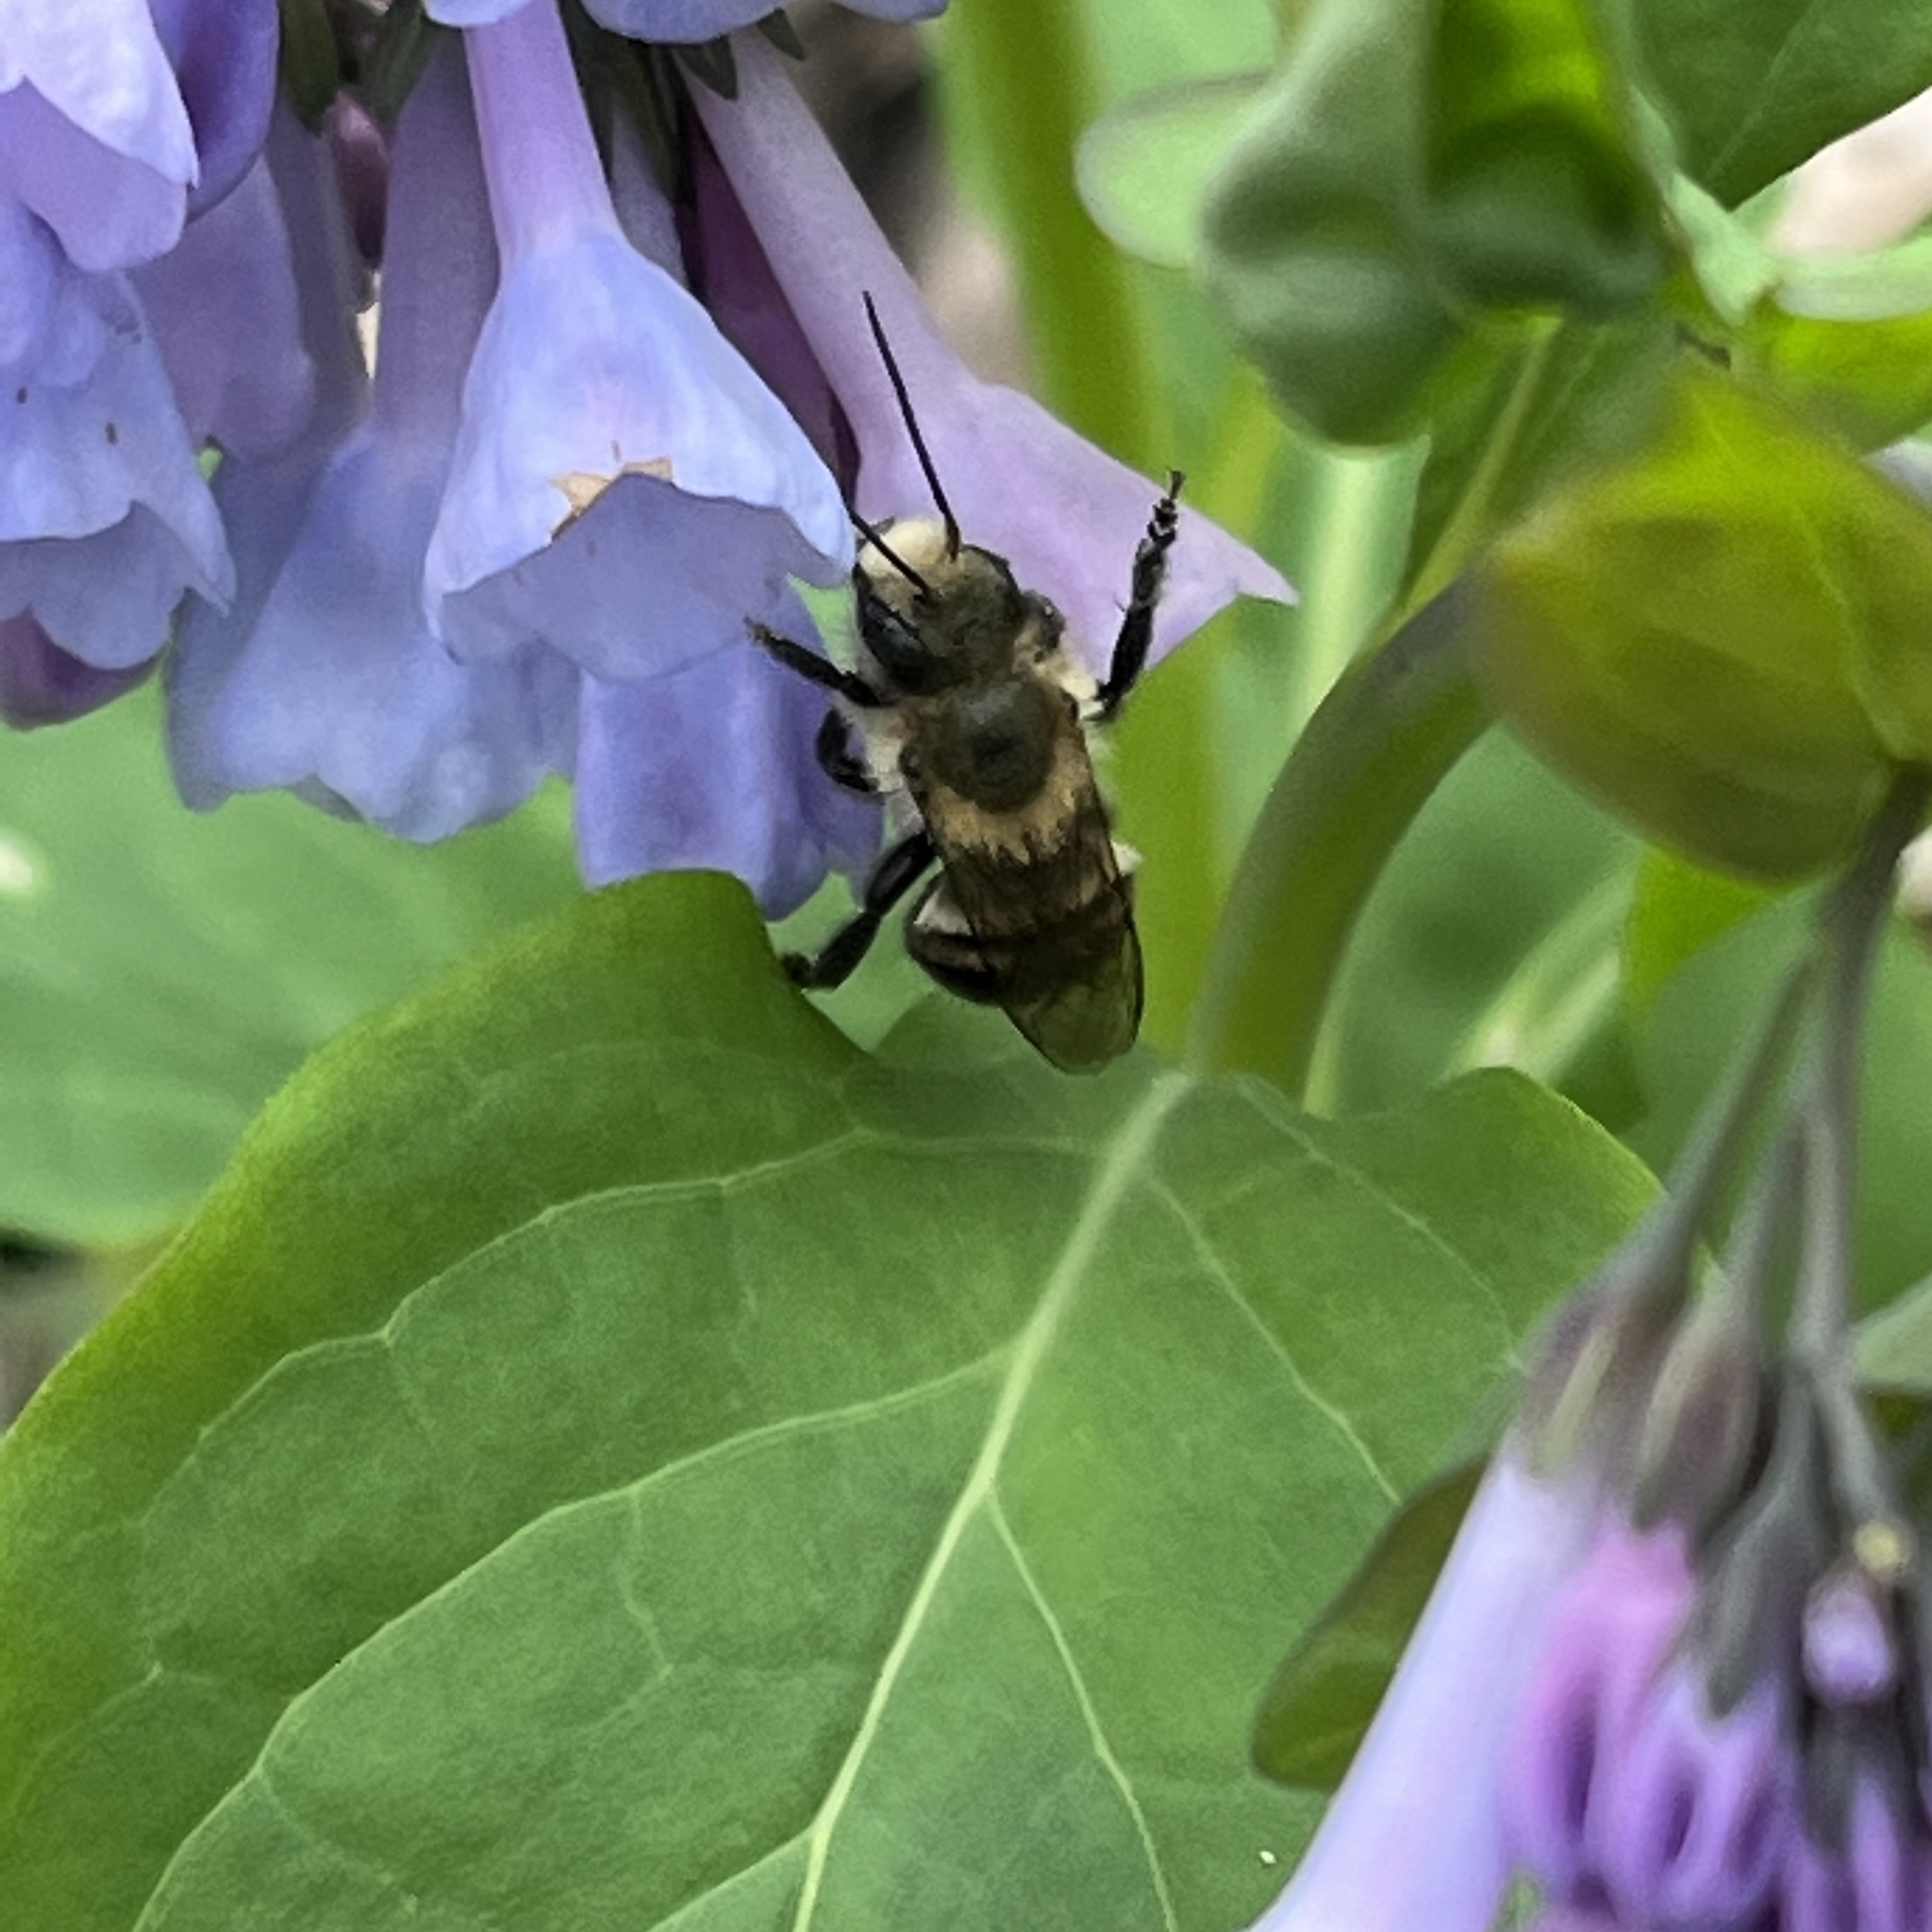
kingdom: Animalia
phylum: Arthropoda
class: Insecta
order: Hymenoptera
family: Megachilidae
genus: Osmia
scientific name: Osmia bucephala
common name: Bufflehead mason bee
